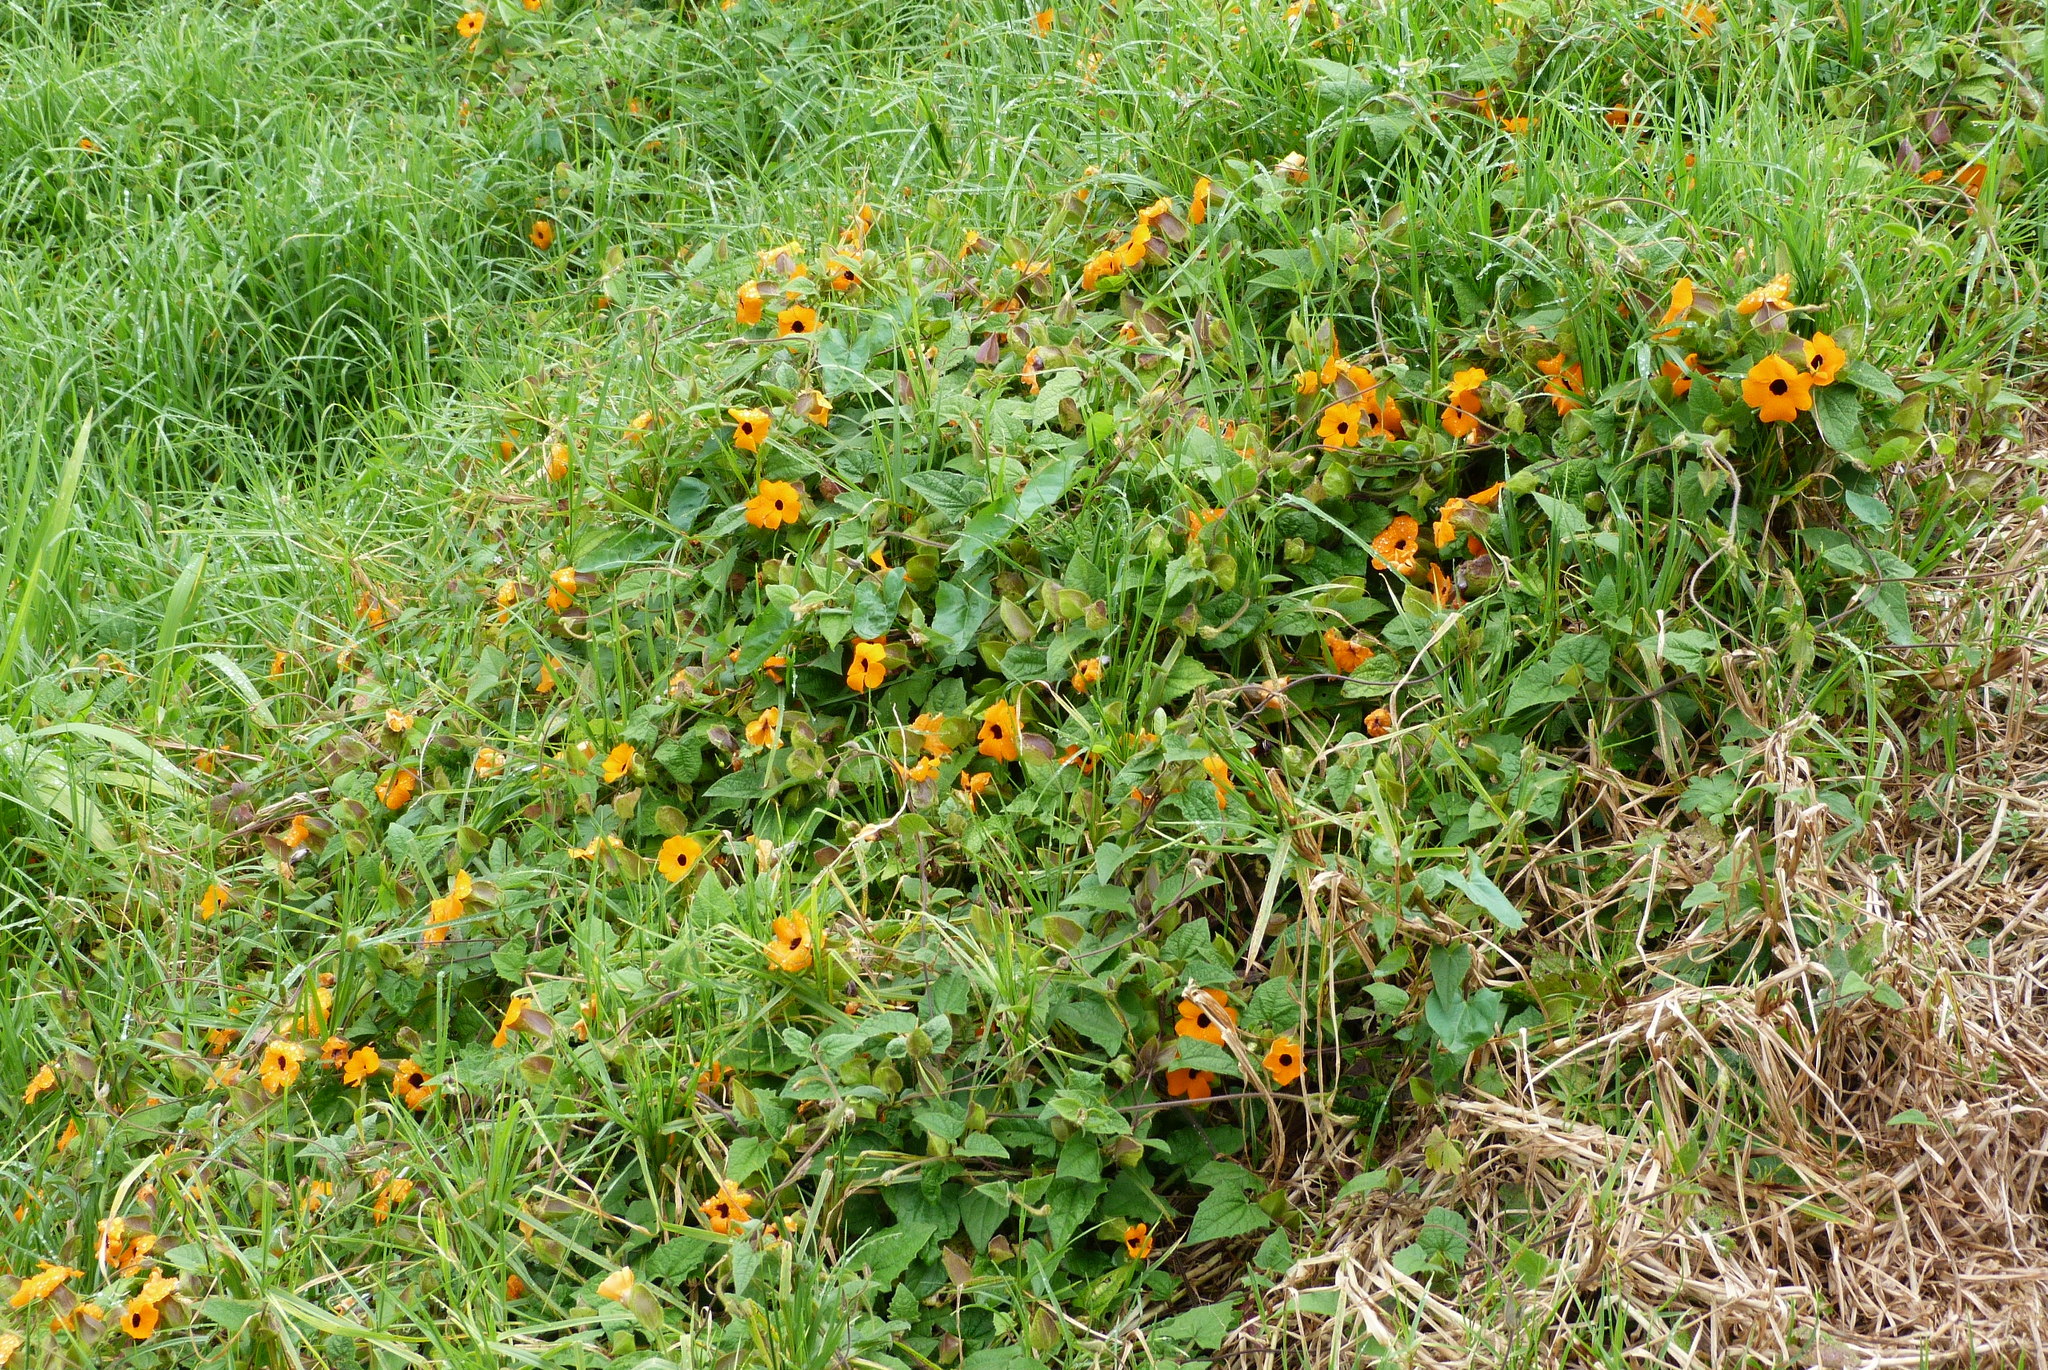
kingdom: Plantae
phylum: Tracheophyta
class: Magnoliopsida
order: Lamiales
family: Acanthaceae
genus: Thunbergia
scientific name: Thunbergia alata
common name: Blackeyed susan vine
